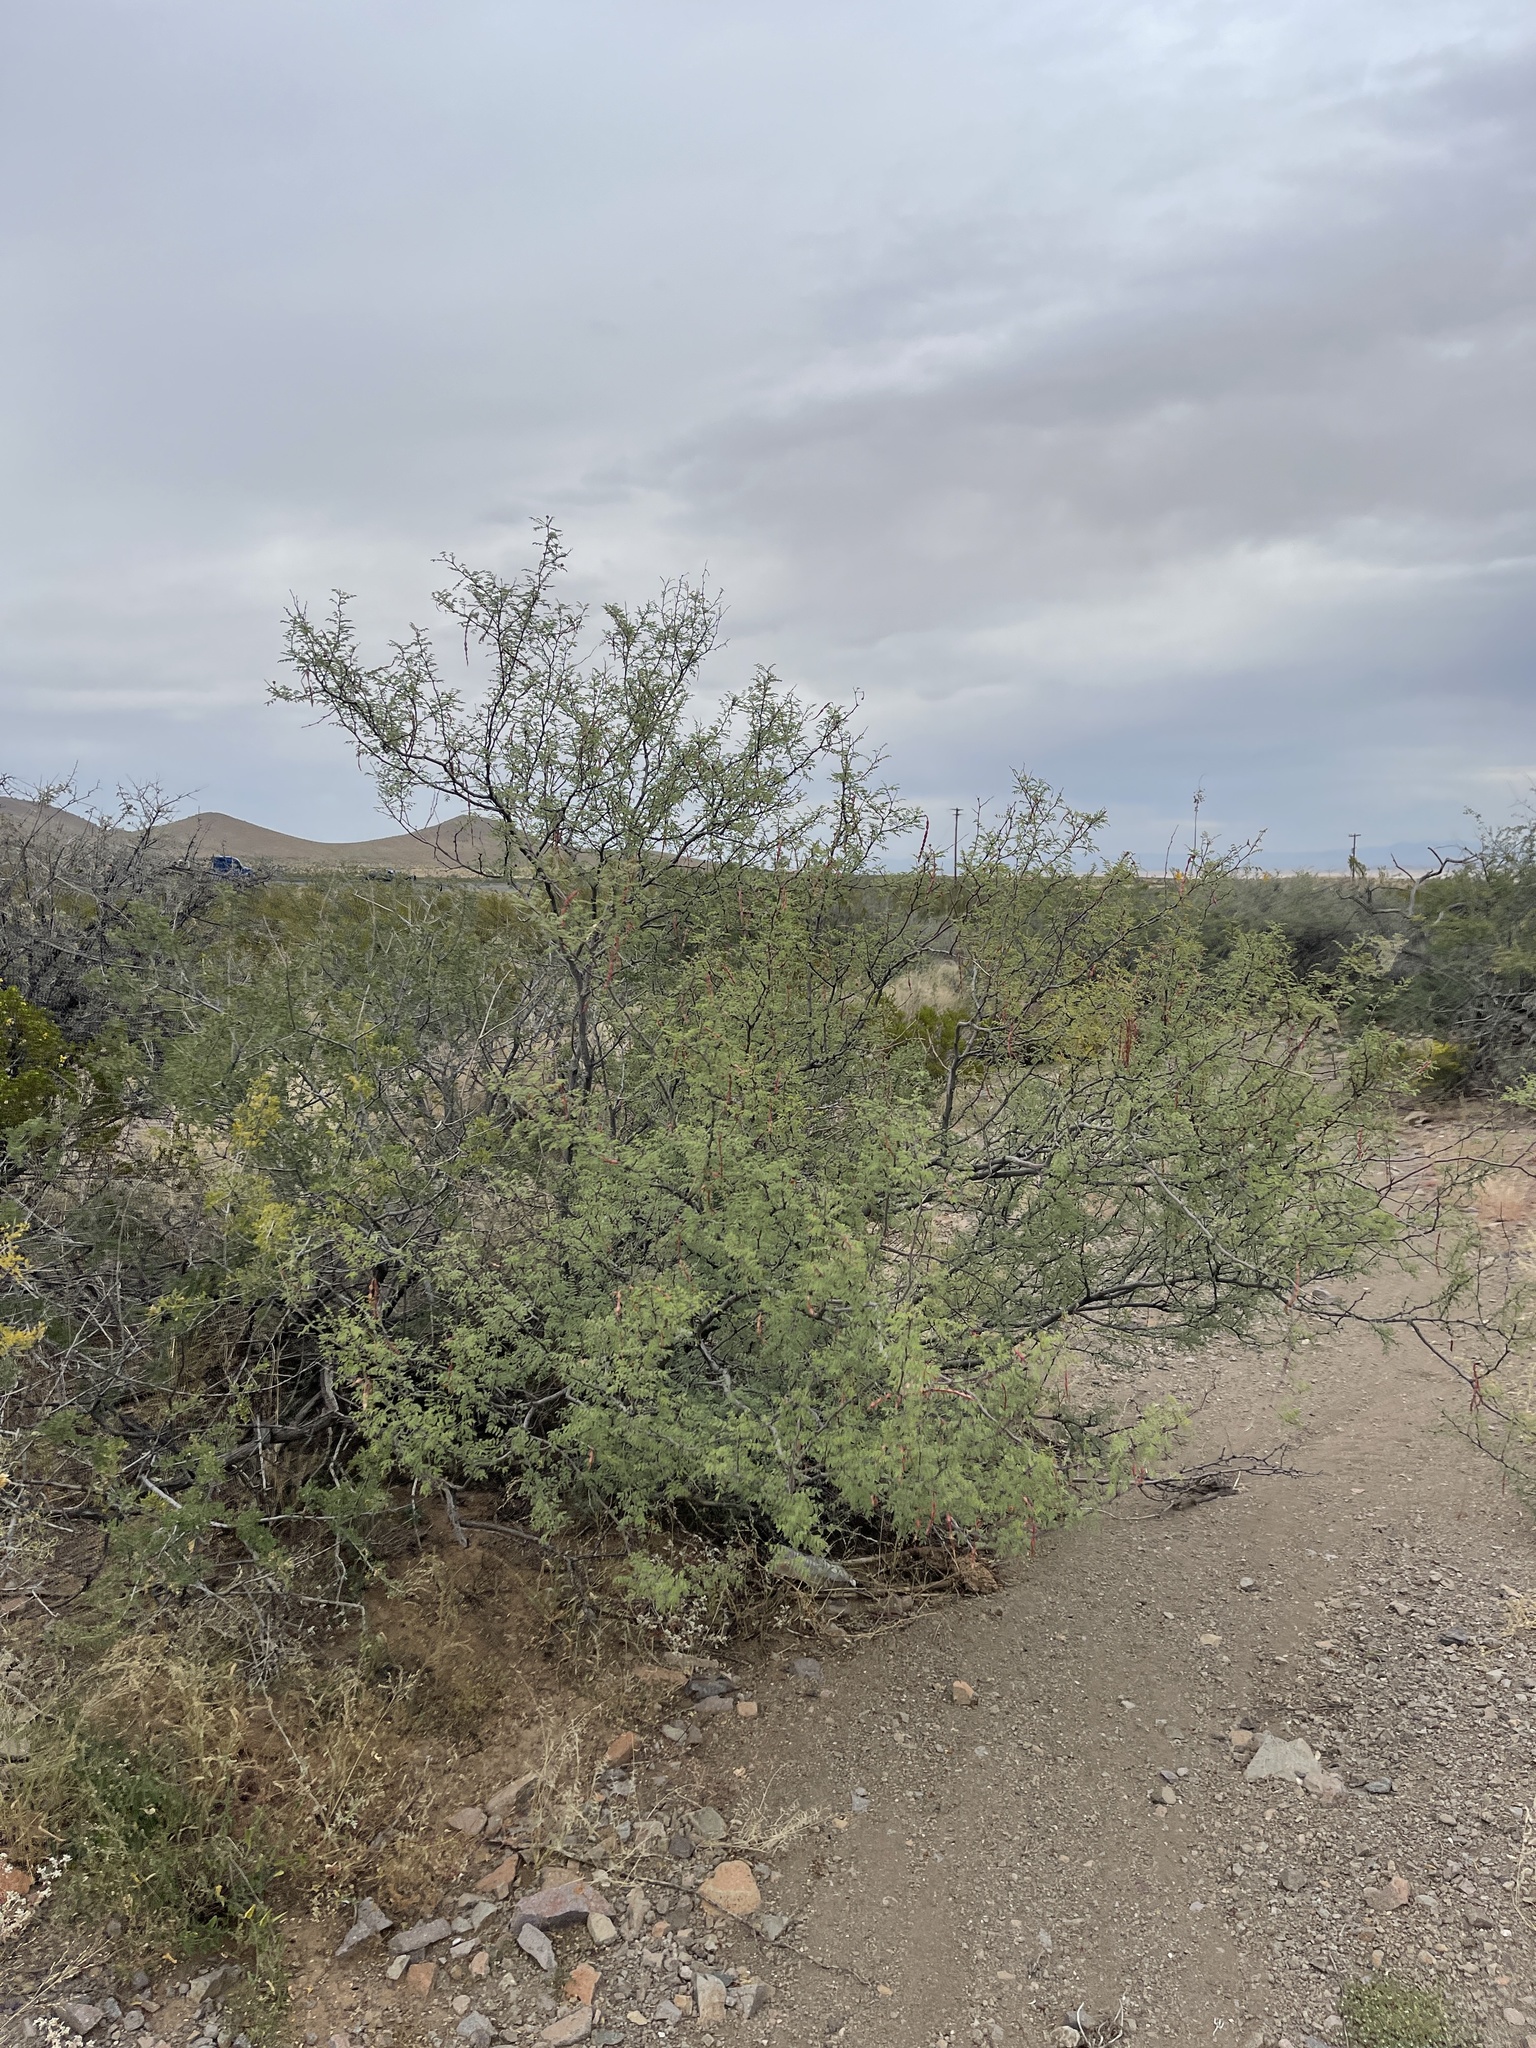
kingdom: Plantae
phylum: Tracheophyta
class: Magnoliopsida
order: Fabales
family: Fabaceae
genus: Vachellia
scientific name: Vachellia constricta
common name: Mescat acacia
